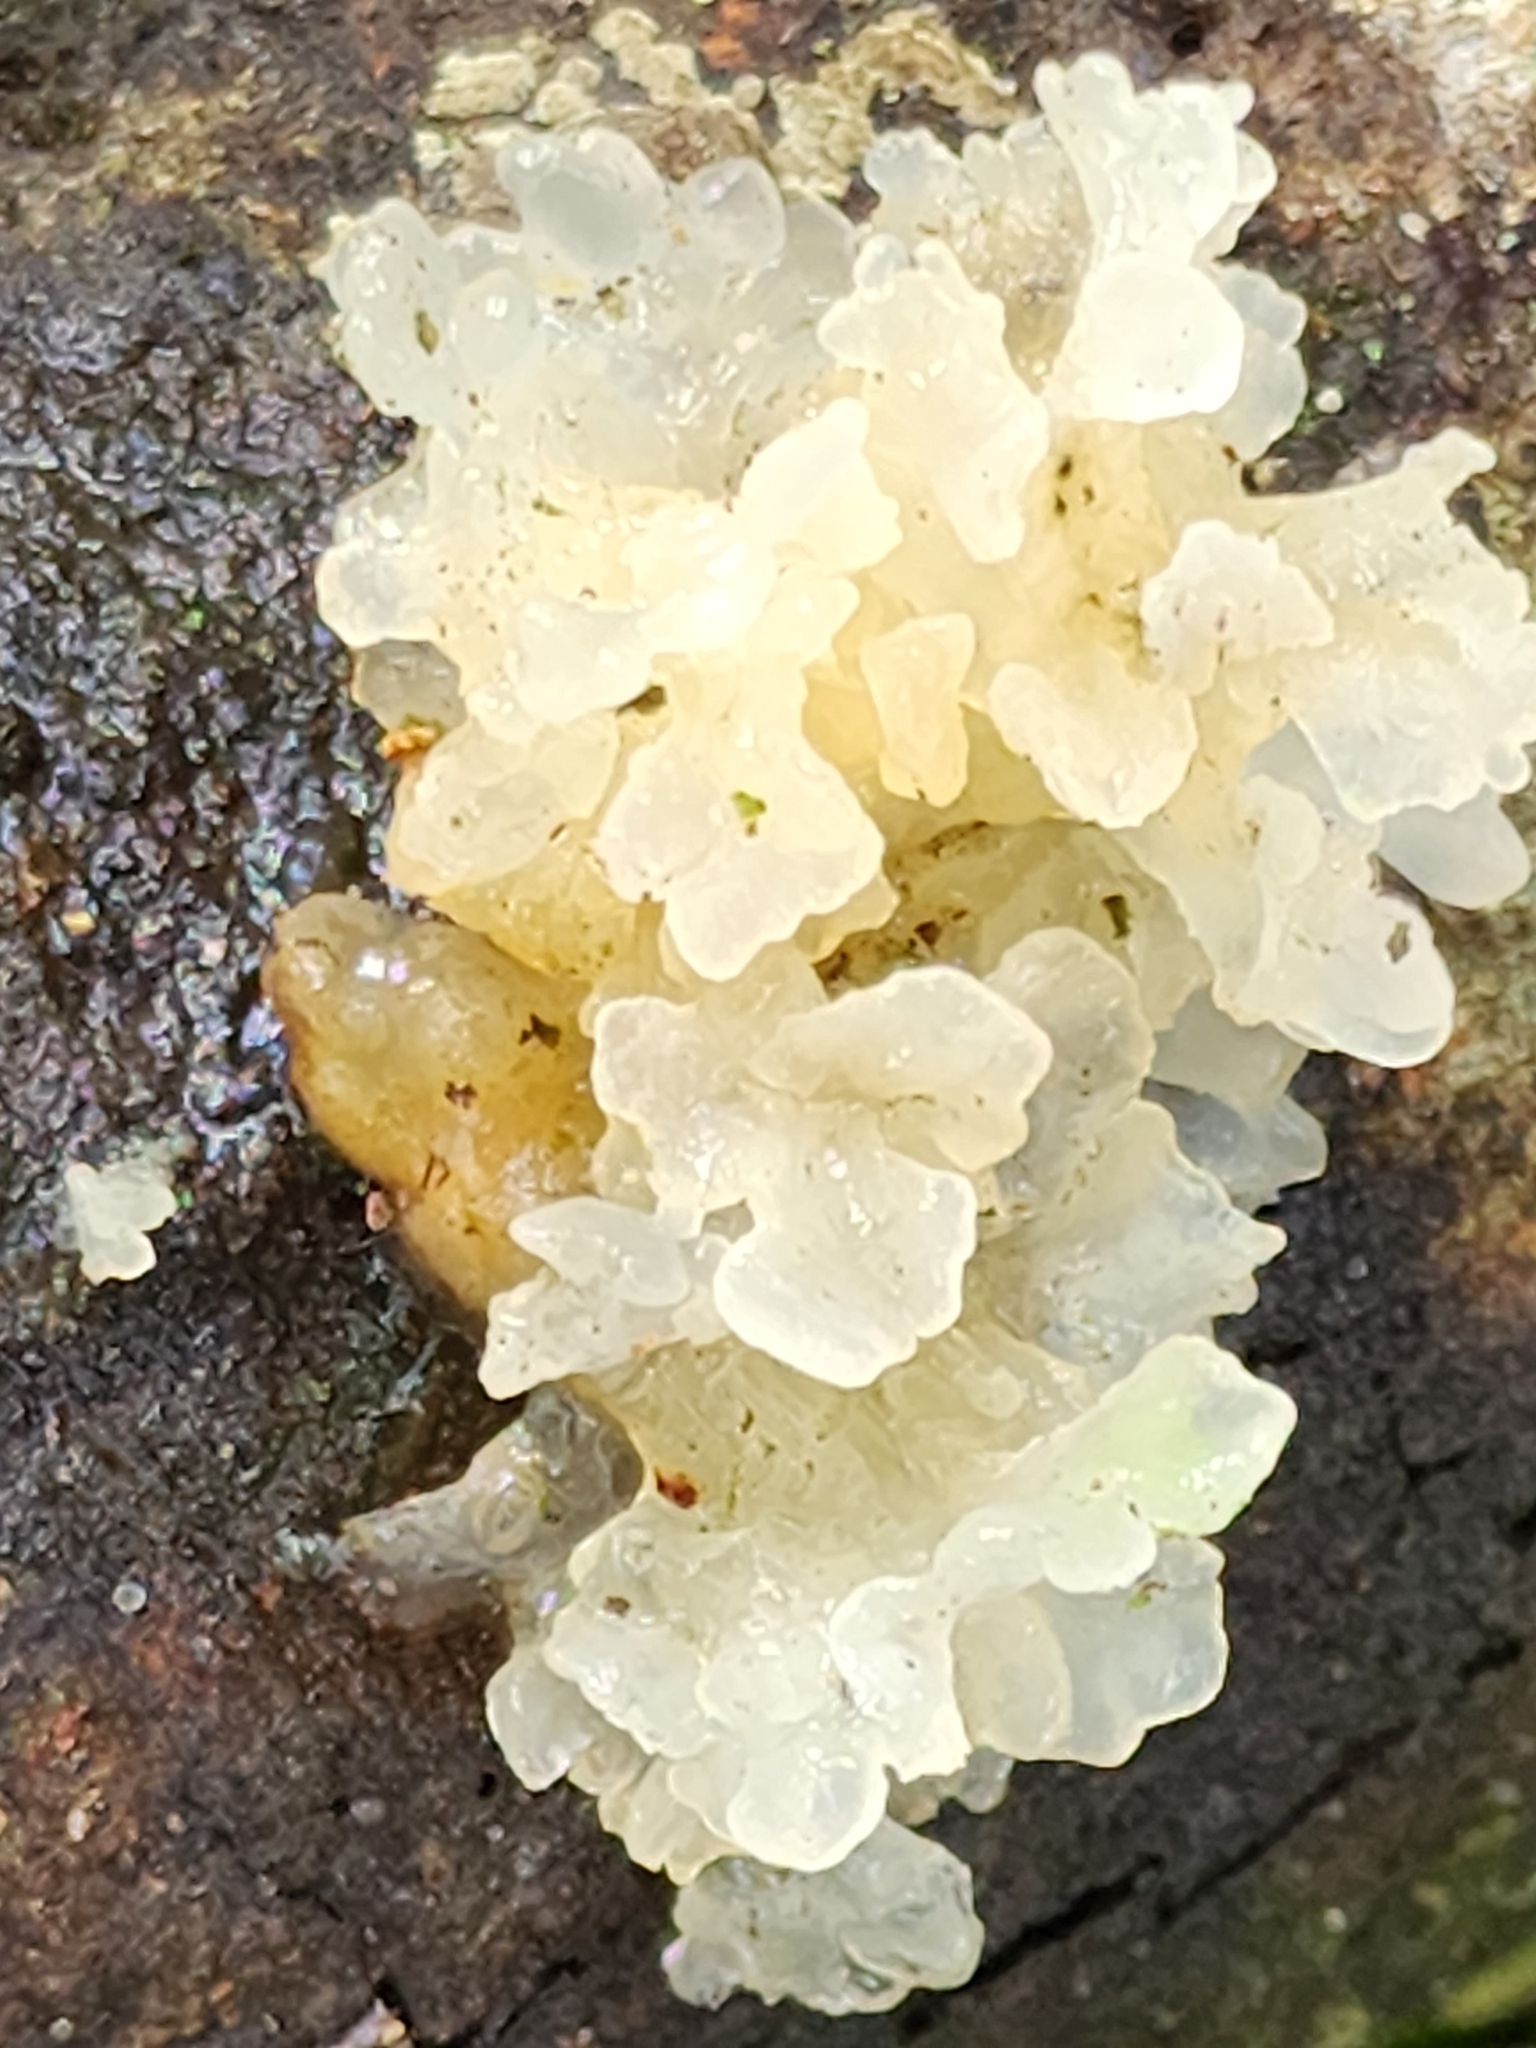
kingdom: Fungi
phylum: Basidiomycota
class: Tremellomycetes
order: Tremellales
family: Tremellaceae
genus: Tremella
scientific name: Tremella fuciformis
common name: Snow fungus
